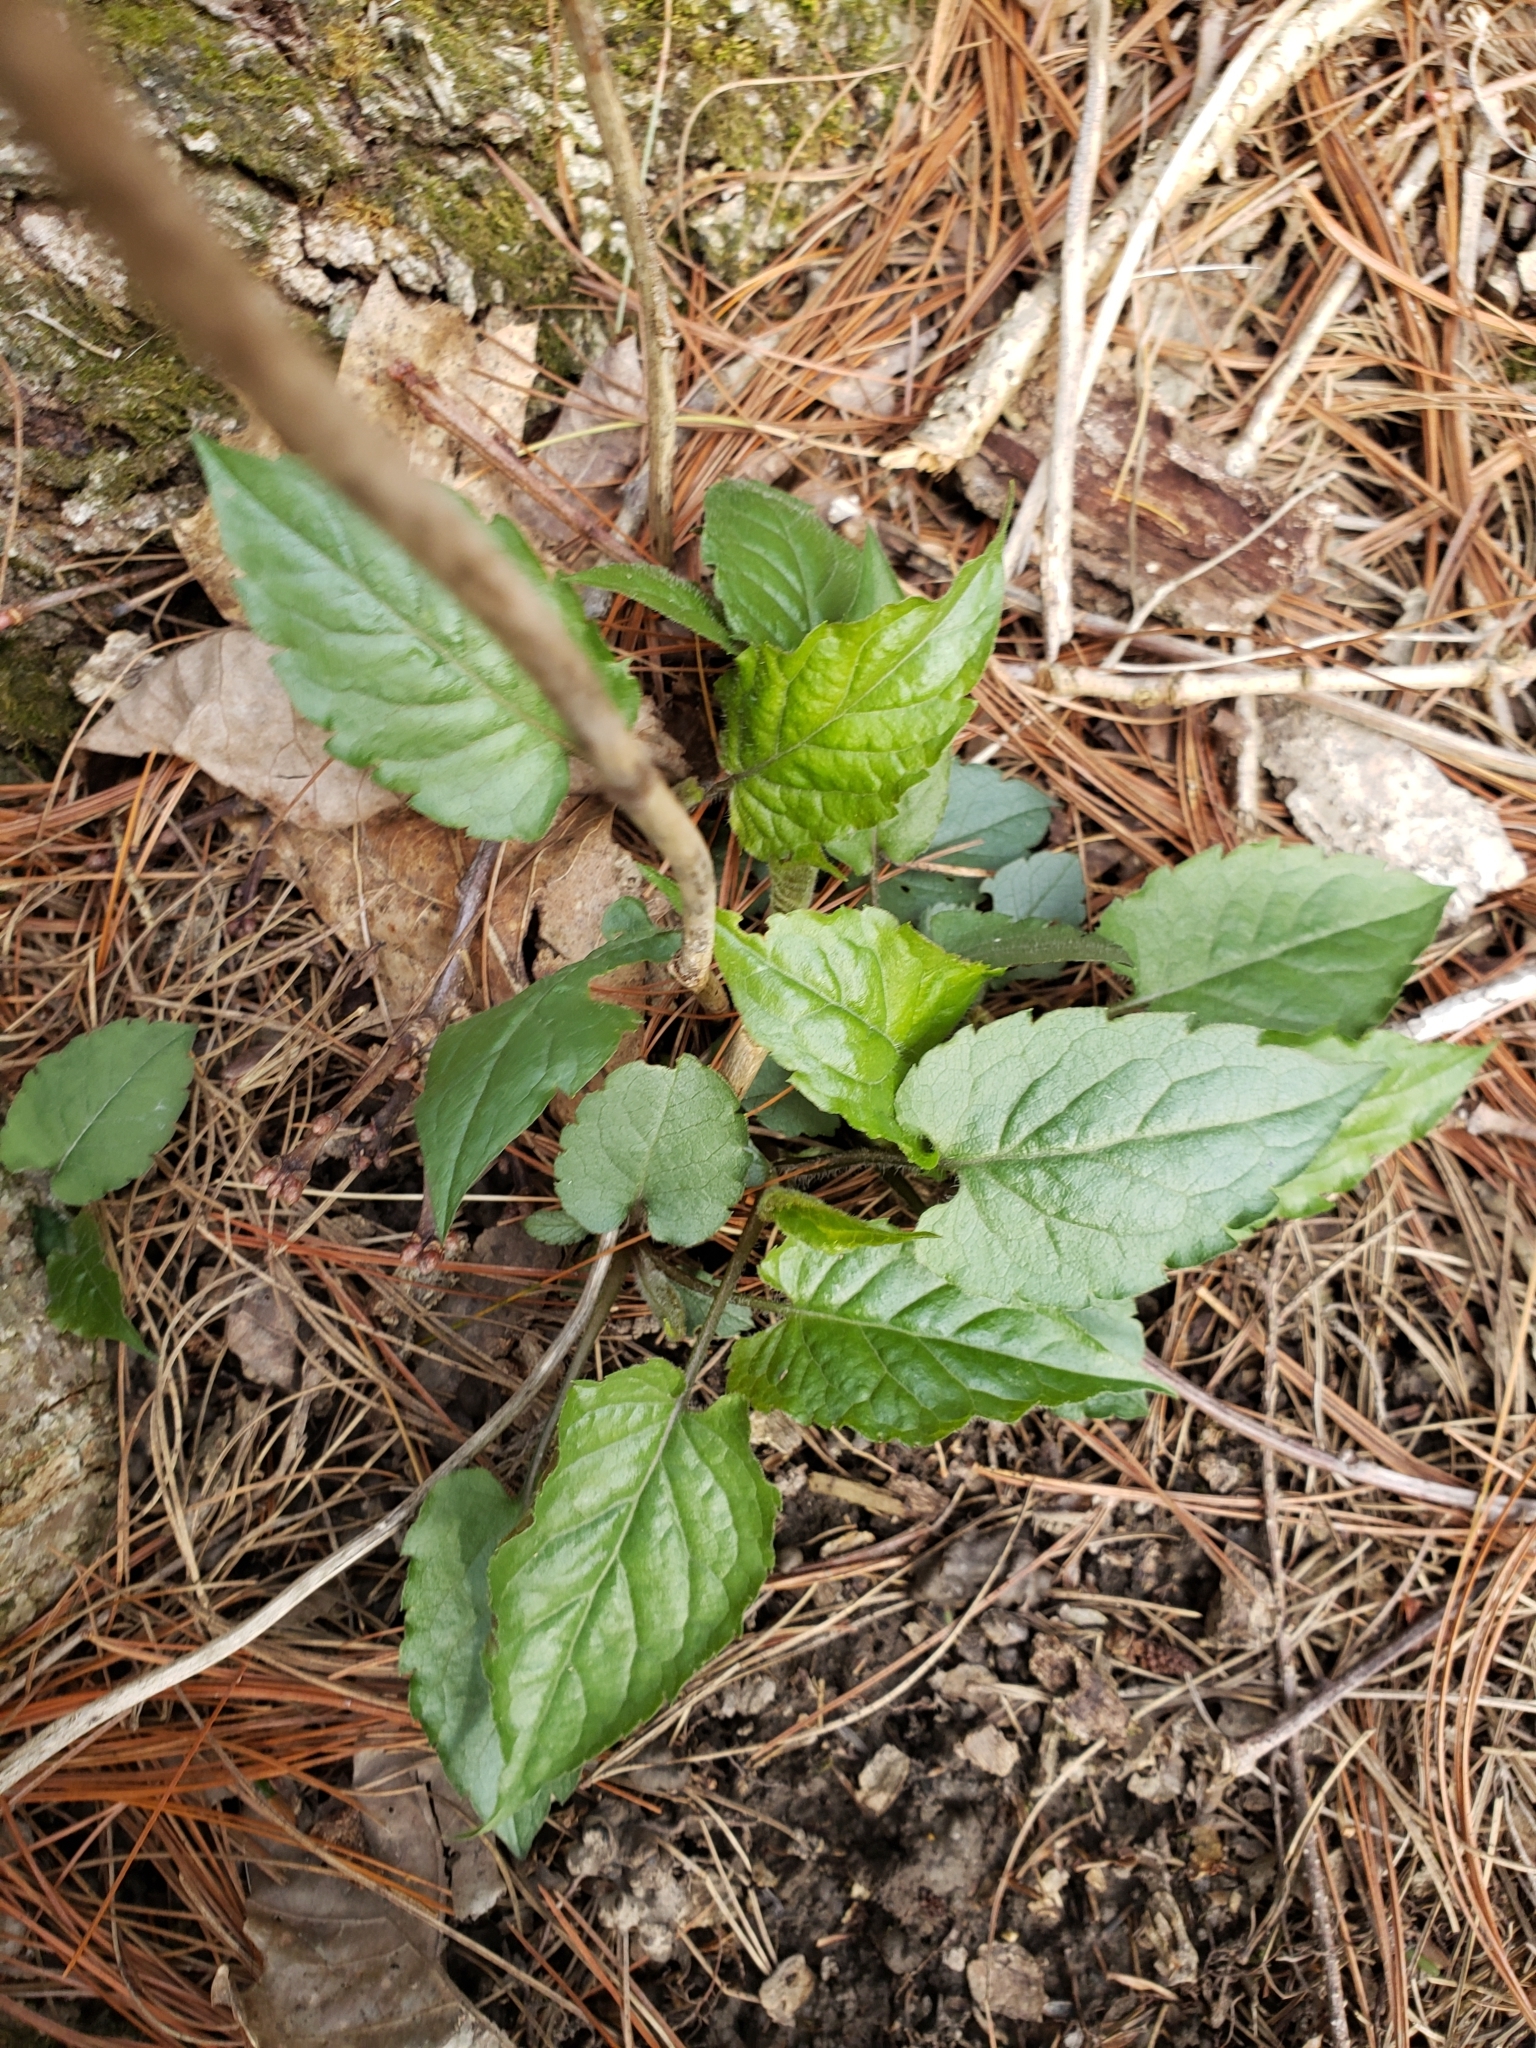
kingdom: Plantae
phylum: Tracheophyta
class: Magnoliopsida
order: Asterales
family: Asteraceae
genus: Eurybia
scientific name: Eurybia divaricata
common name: White wood aster
